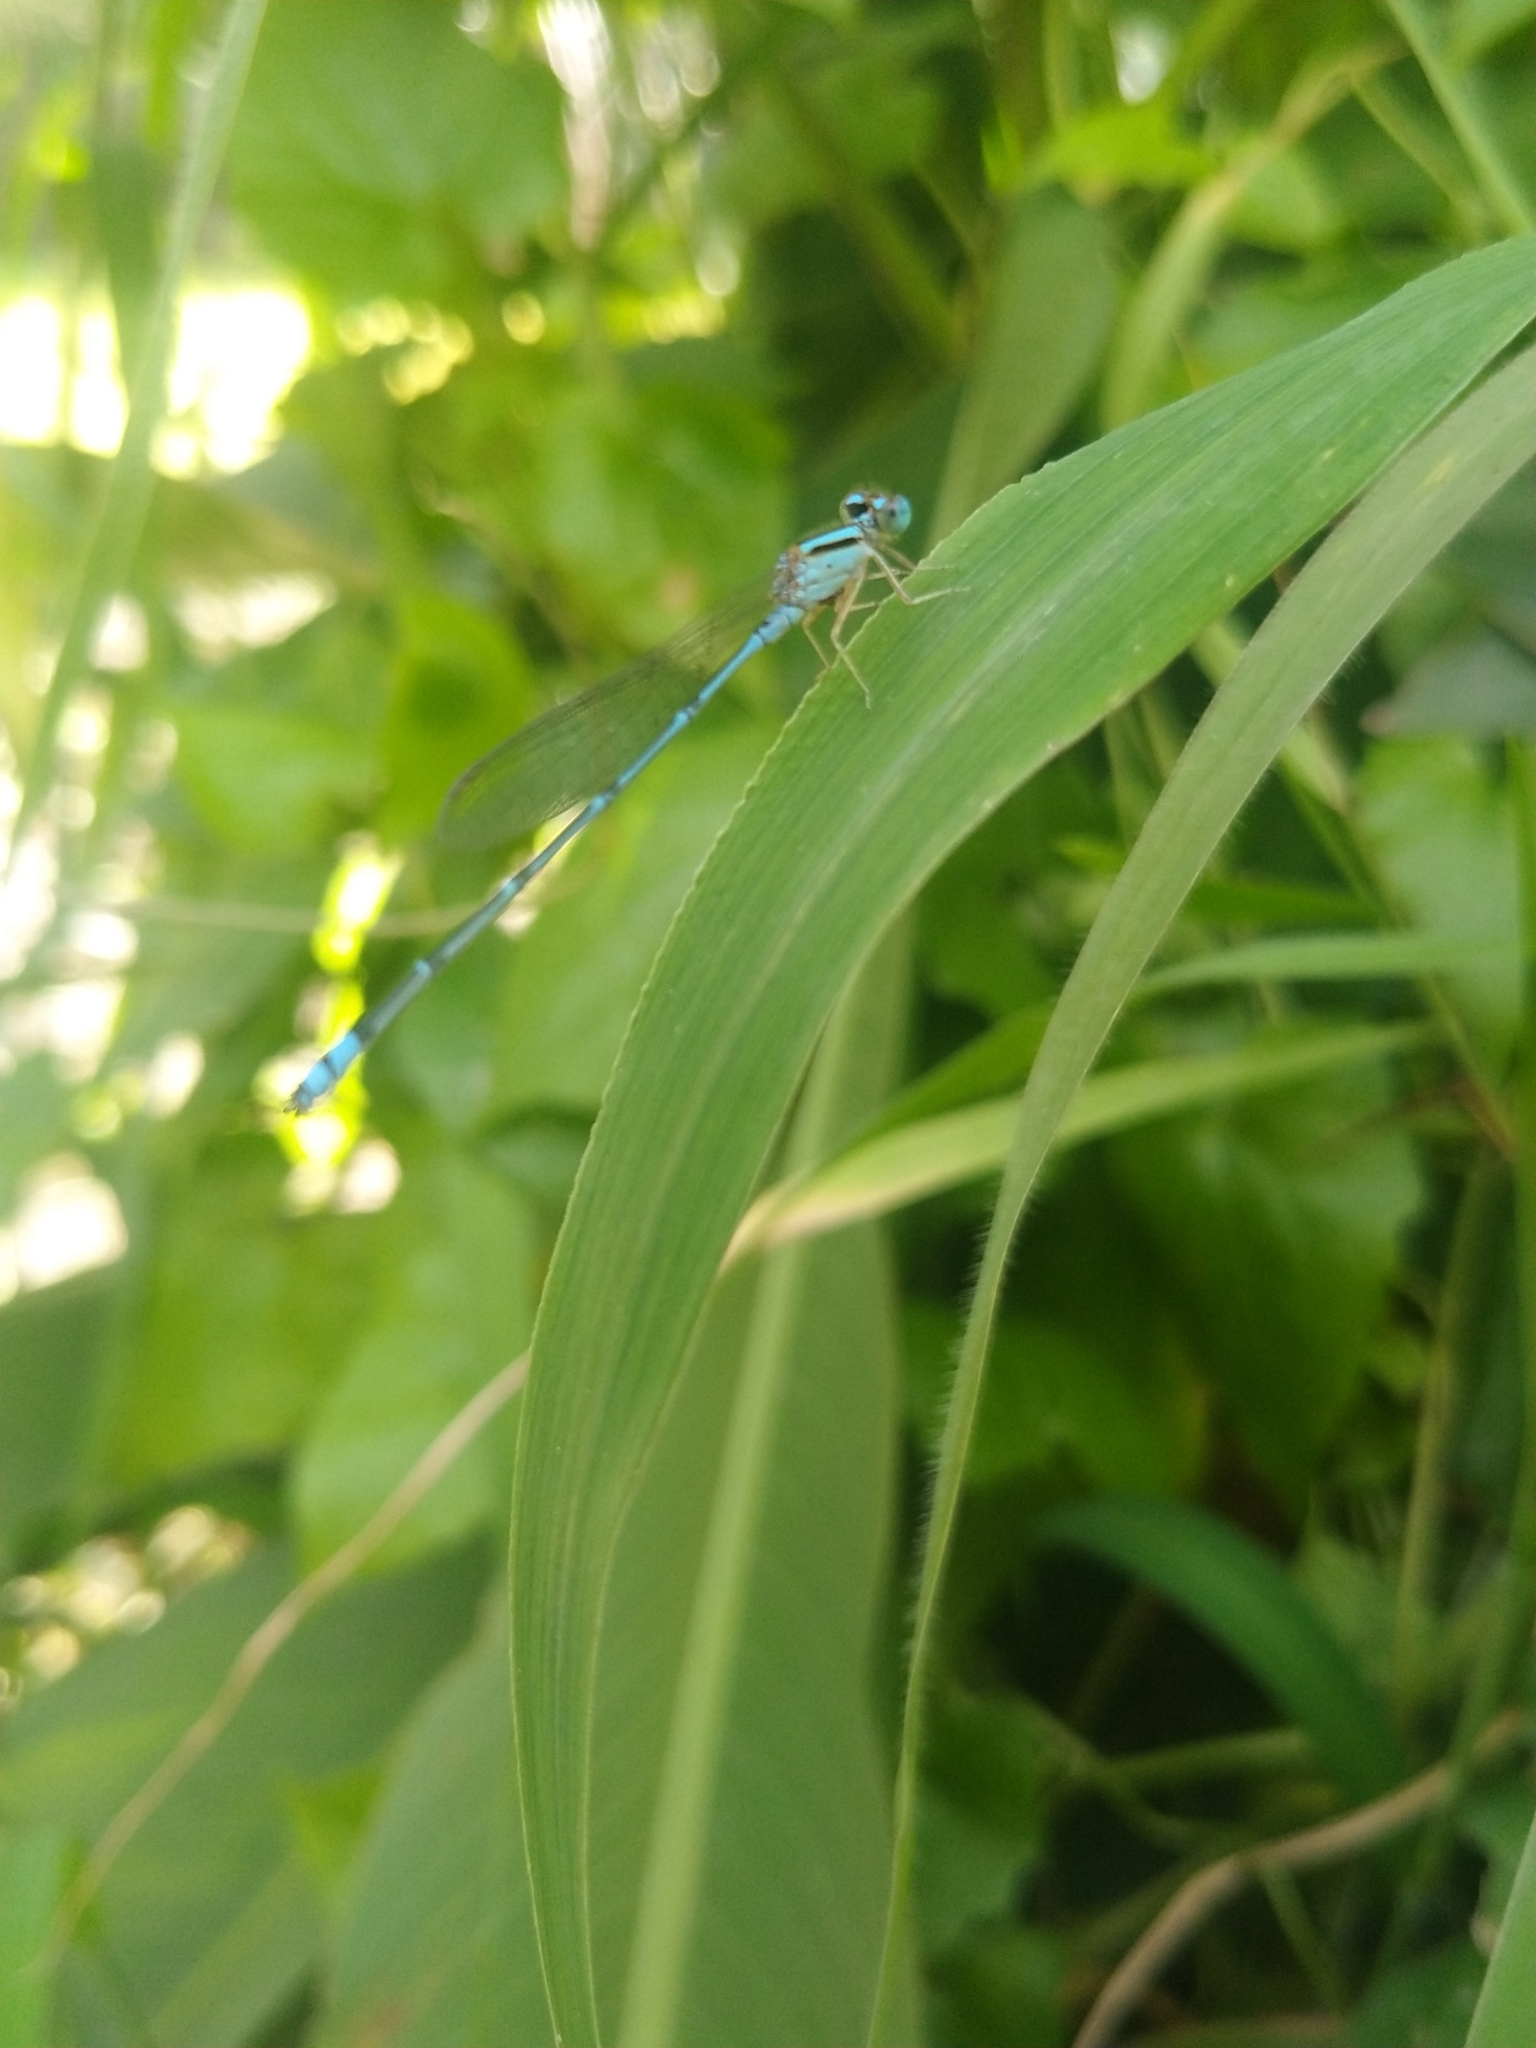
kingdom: Animalia
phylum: Arthropoda
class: Insecta
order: Odonata
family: Coenagrionidae
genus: Pseudagrion
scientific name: Pseudagrion microcephalum
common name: Blue riverdamsel
